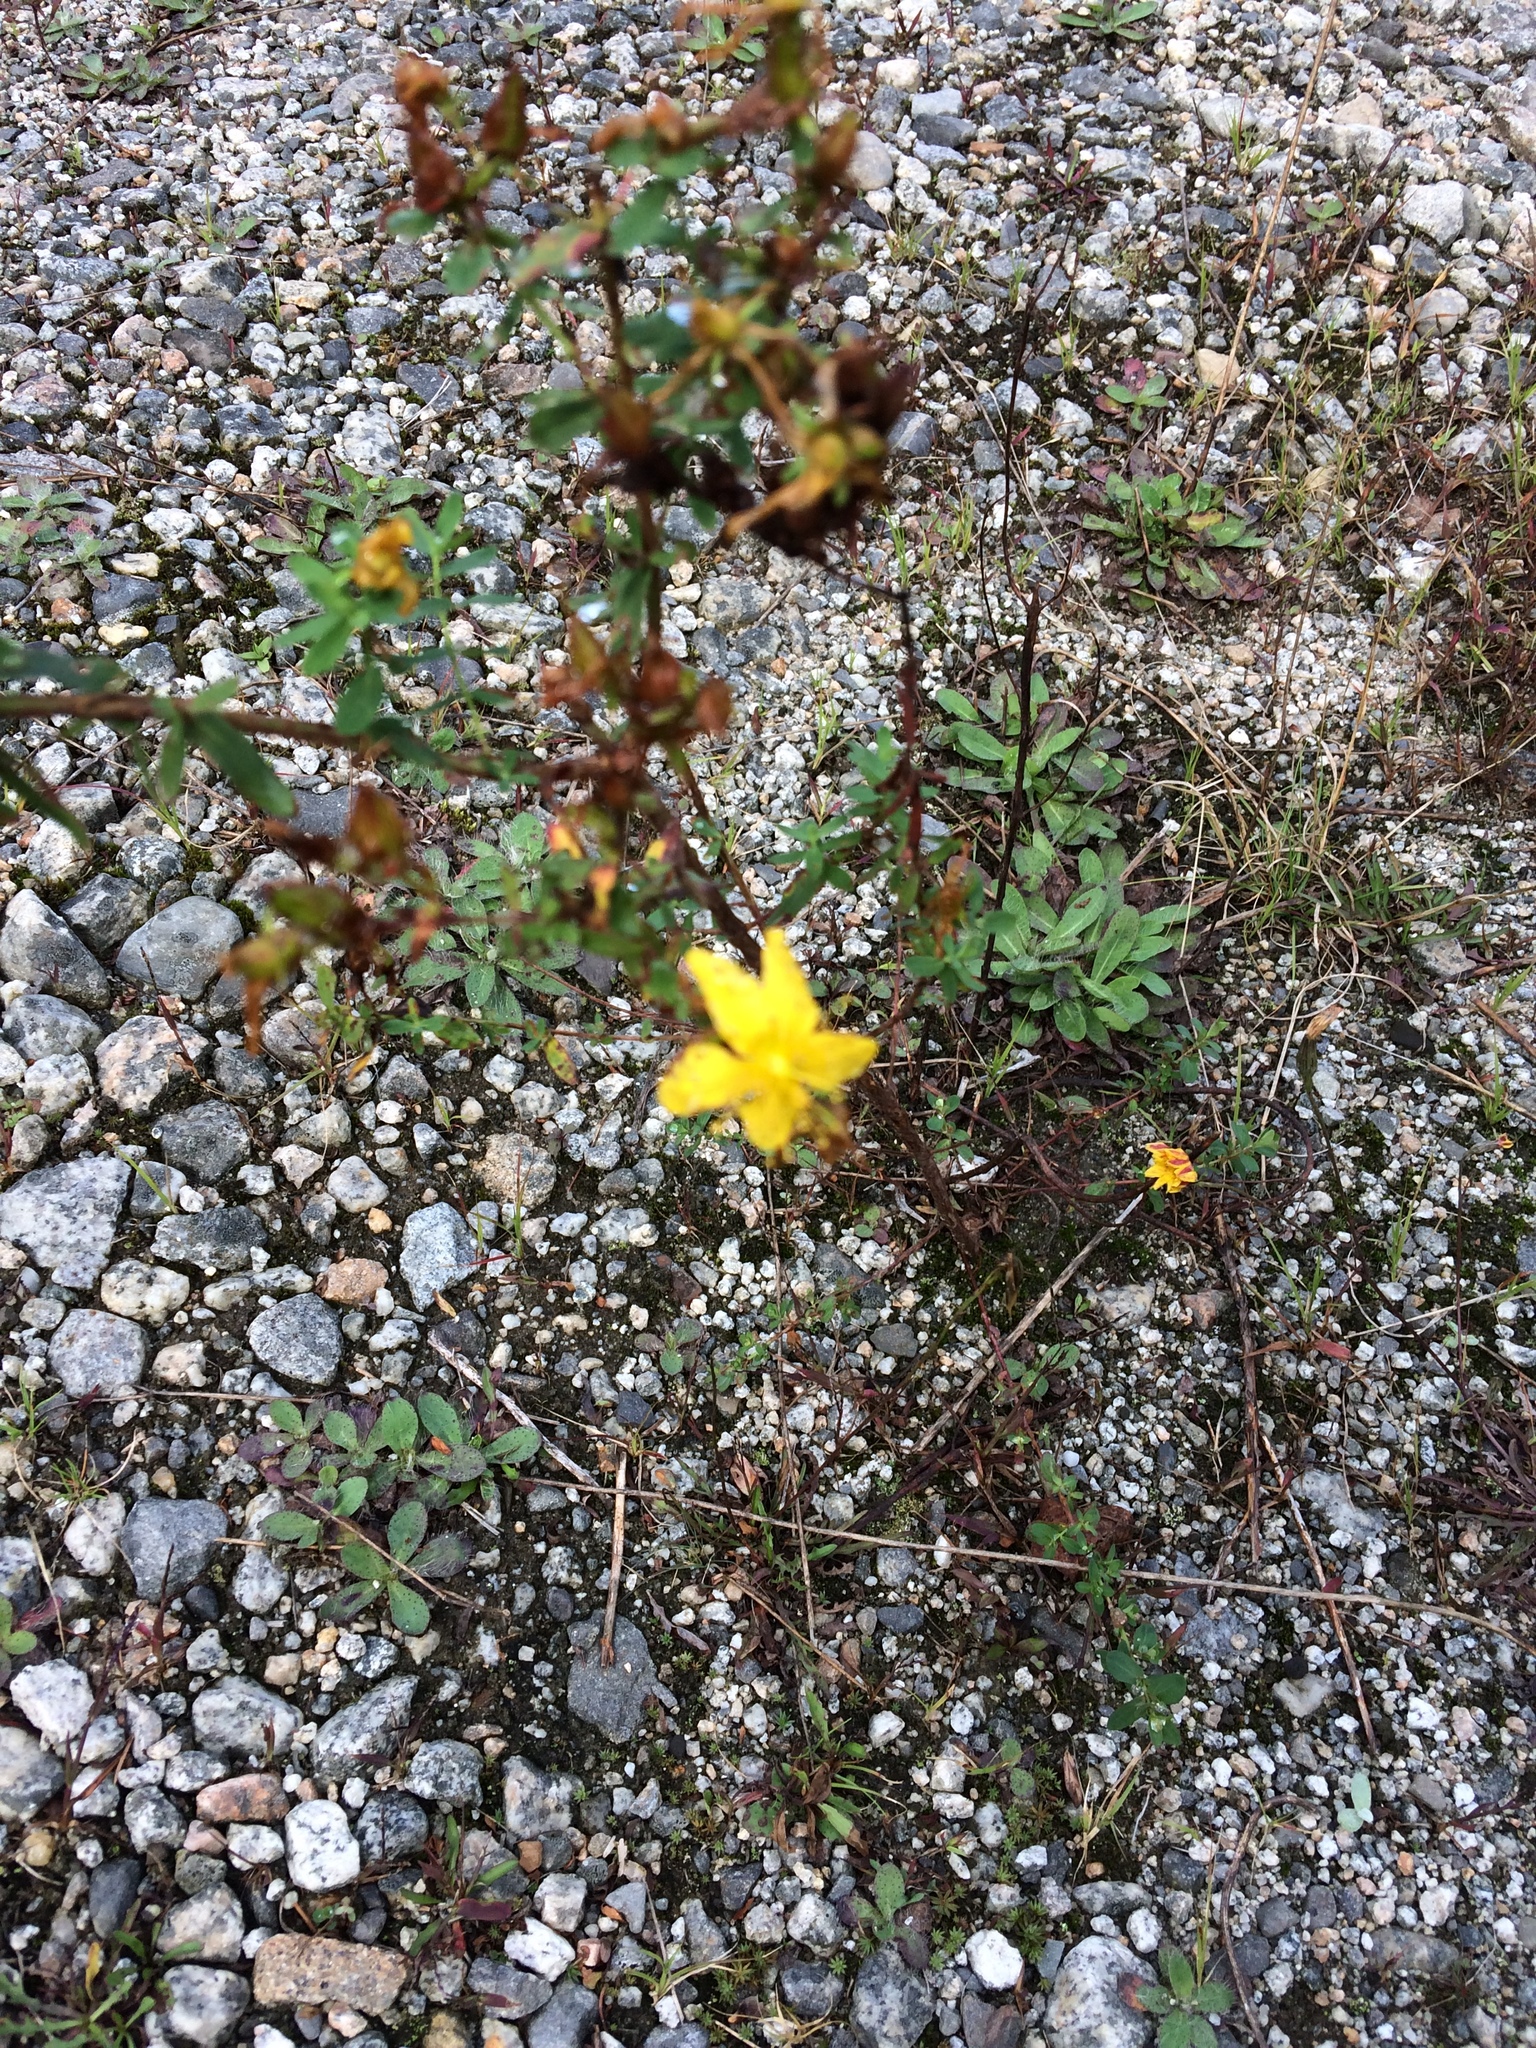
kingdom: Plantae
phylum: Tracheophyta
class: Magnoliopsida
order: Malpighiales
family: Hypericaceae
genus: Hypericum
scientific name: Hypericum perforatum
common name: Common st. johnswort
